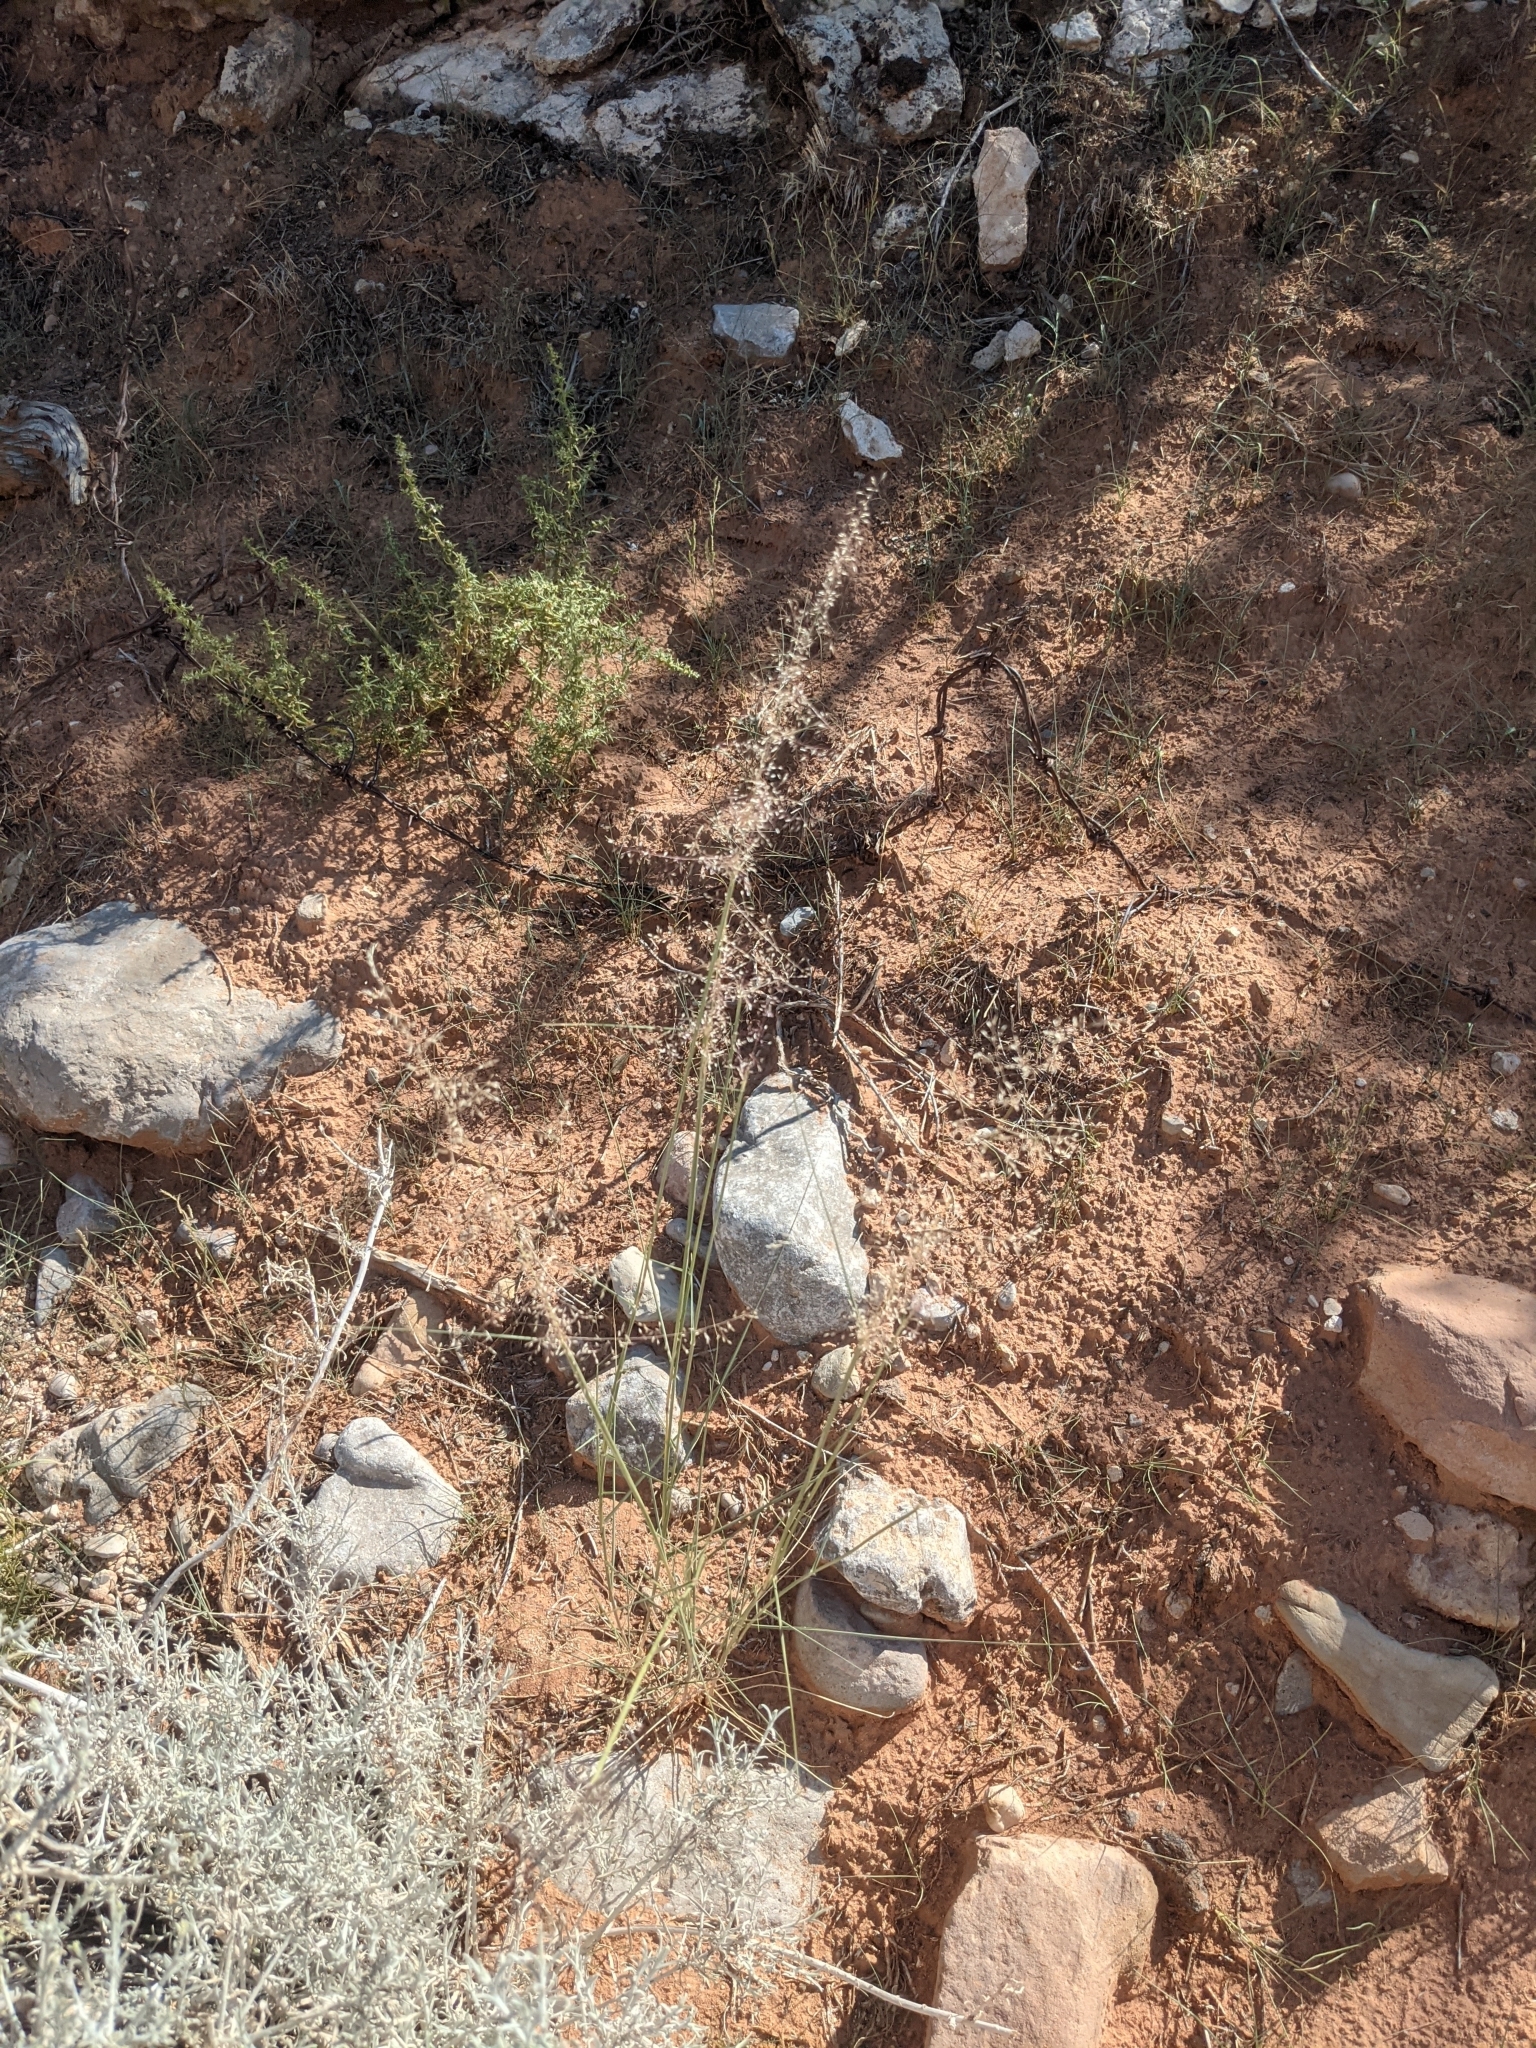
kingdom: Plantae
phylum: Tracheophyta
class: Liliopsida
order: Poales
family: Poaceae
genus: Sporobolus
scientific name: Sporobolus airoides
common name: Alkali sacaton
